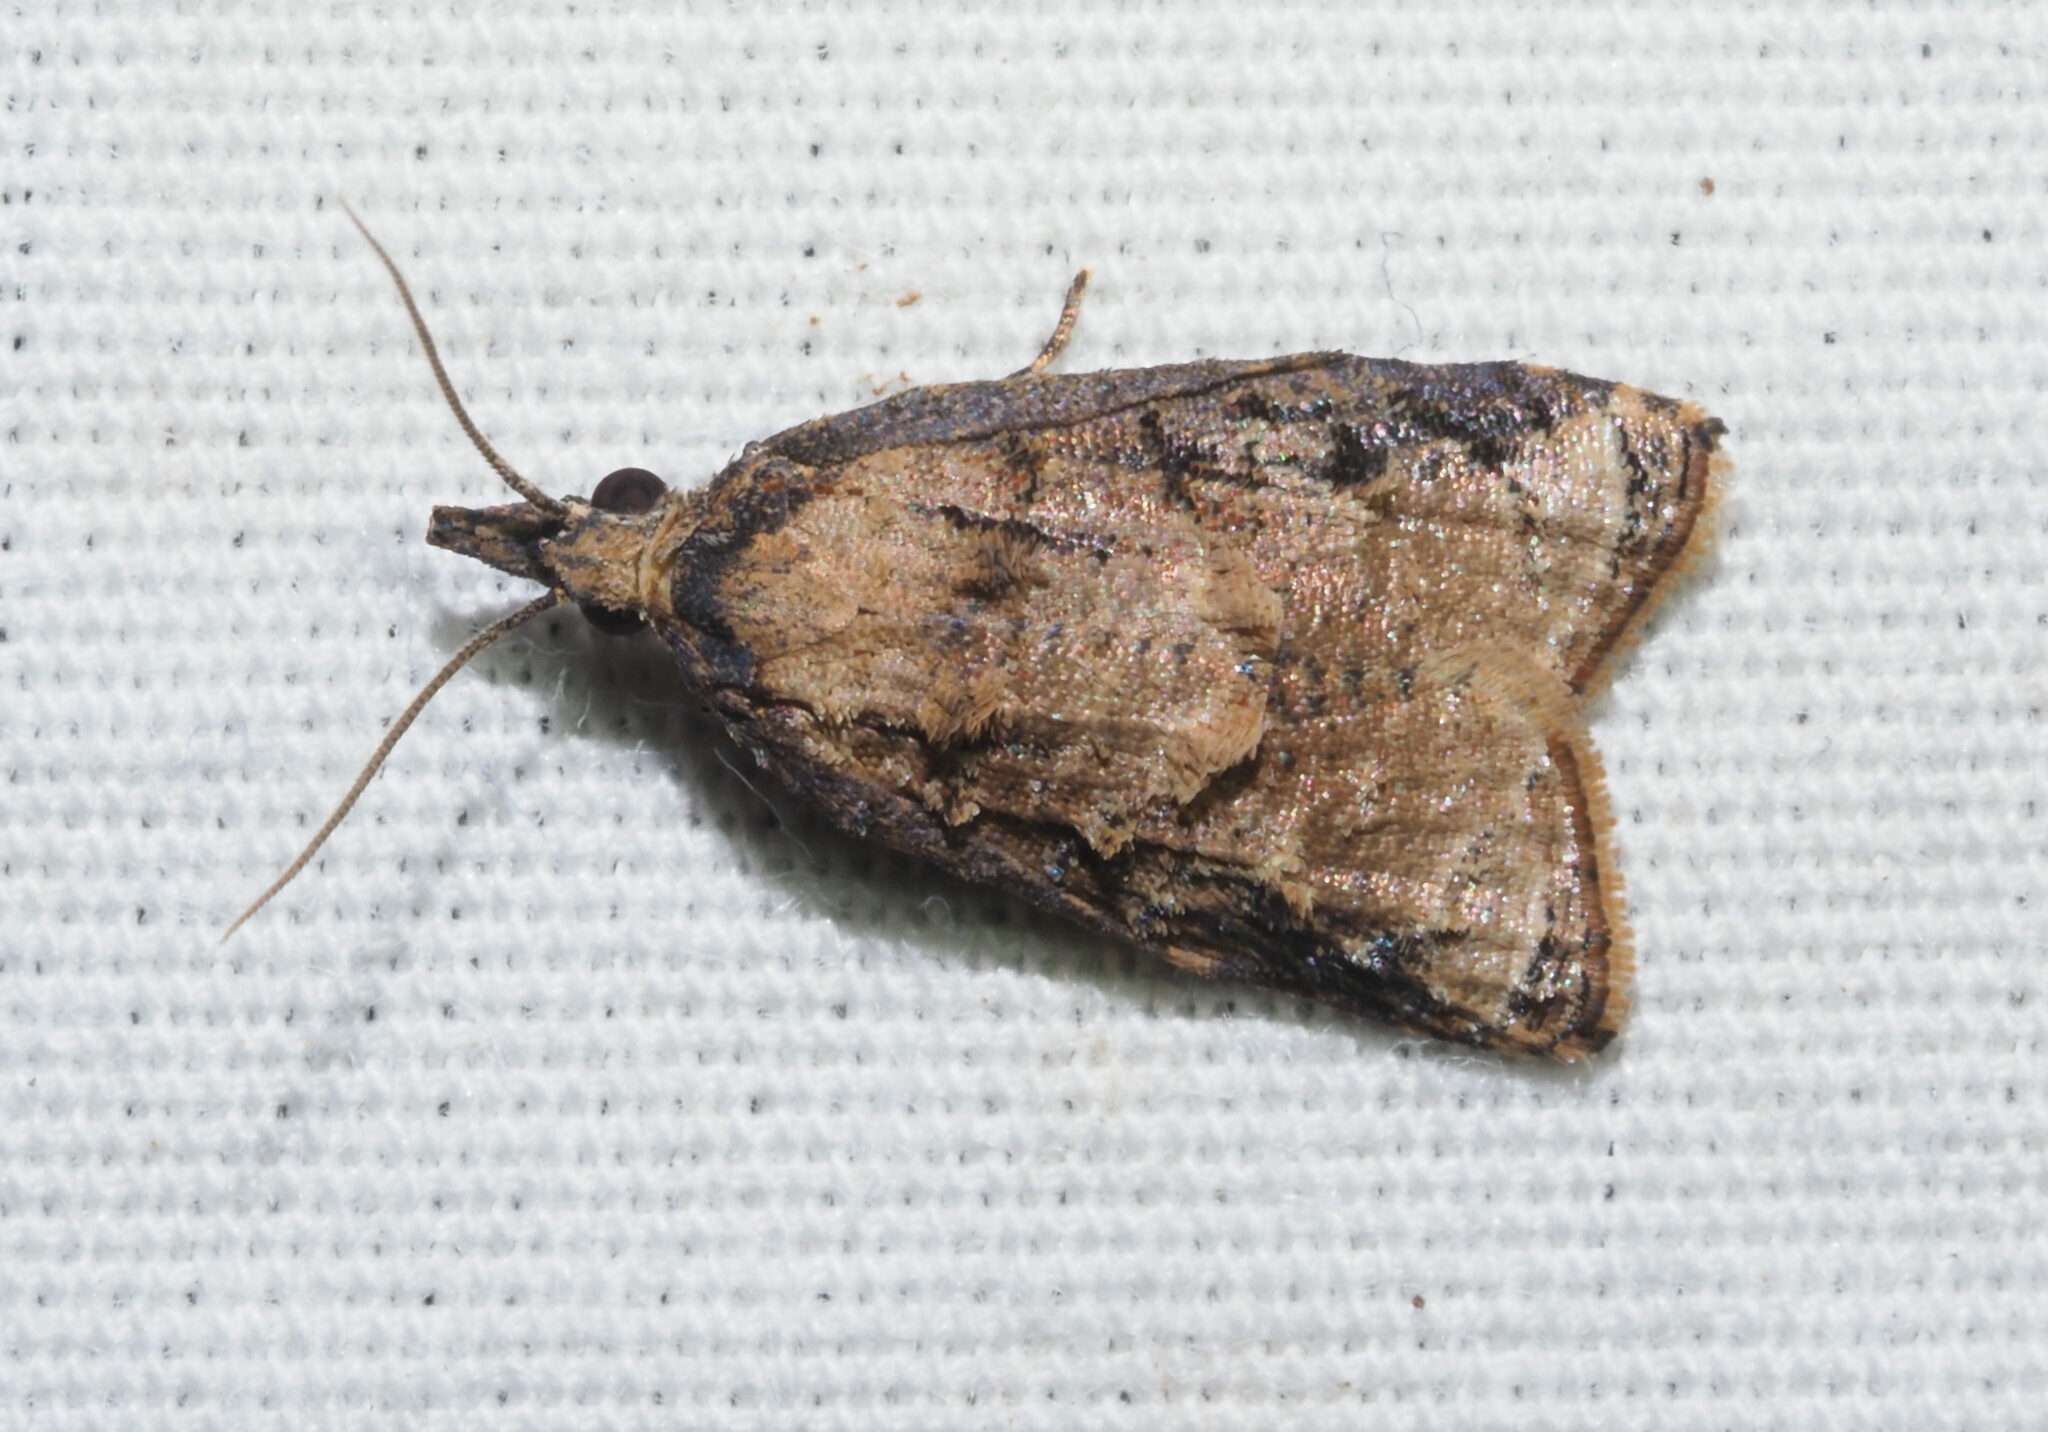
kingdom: Animalia
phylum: Arthropoda
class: Insecta
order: Lepidoptera
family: Tortricidae
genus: Platynota
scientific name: Platynota rostrana
